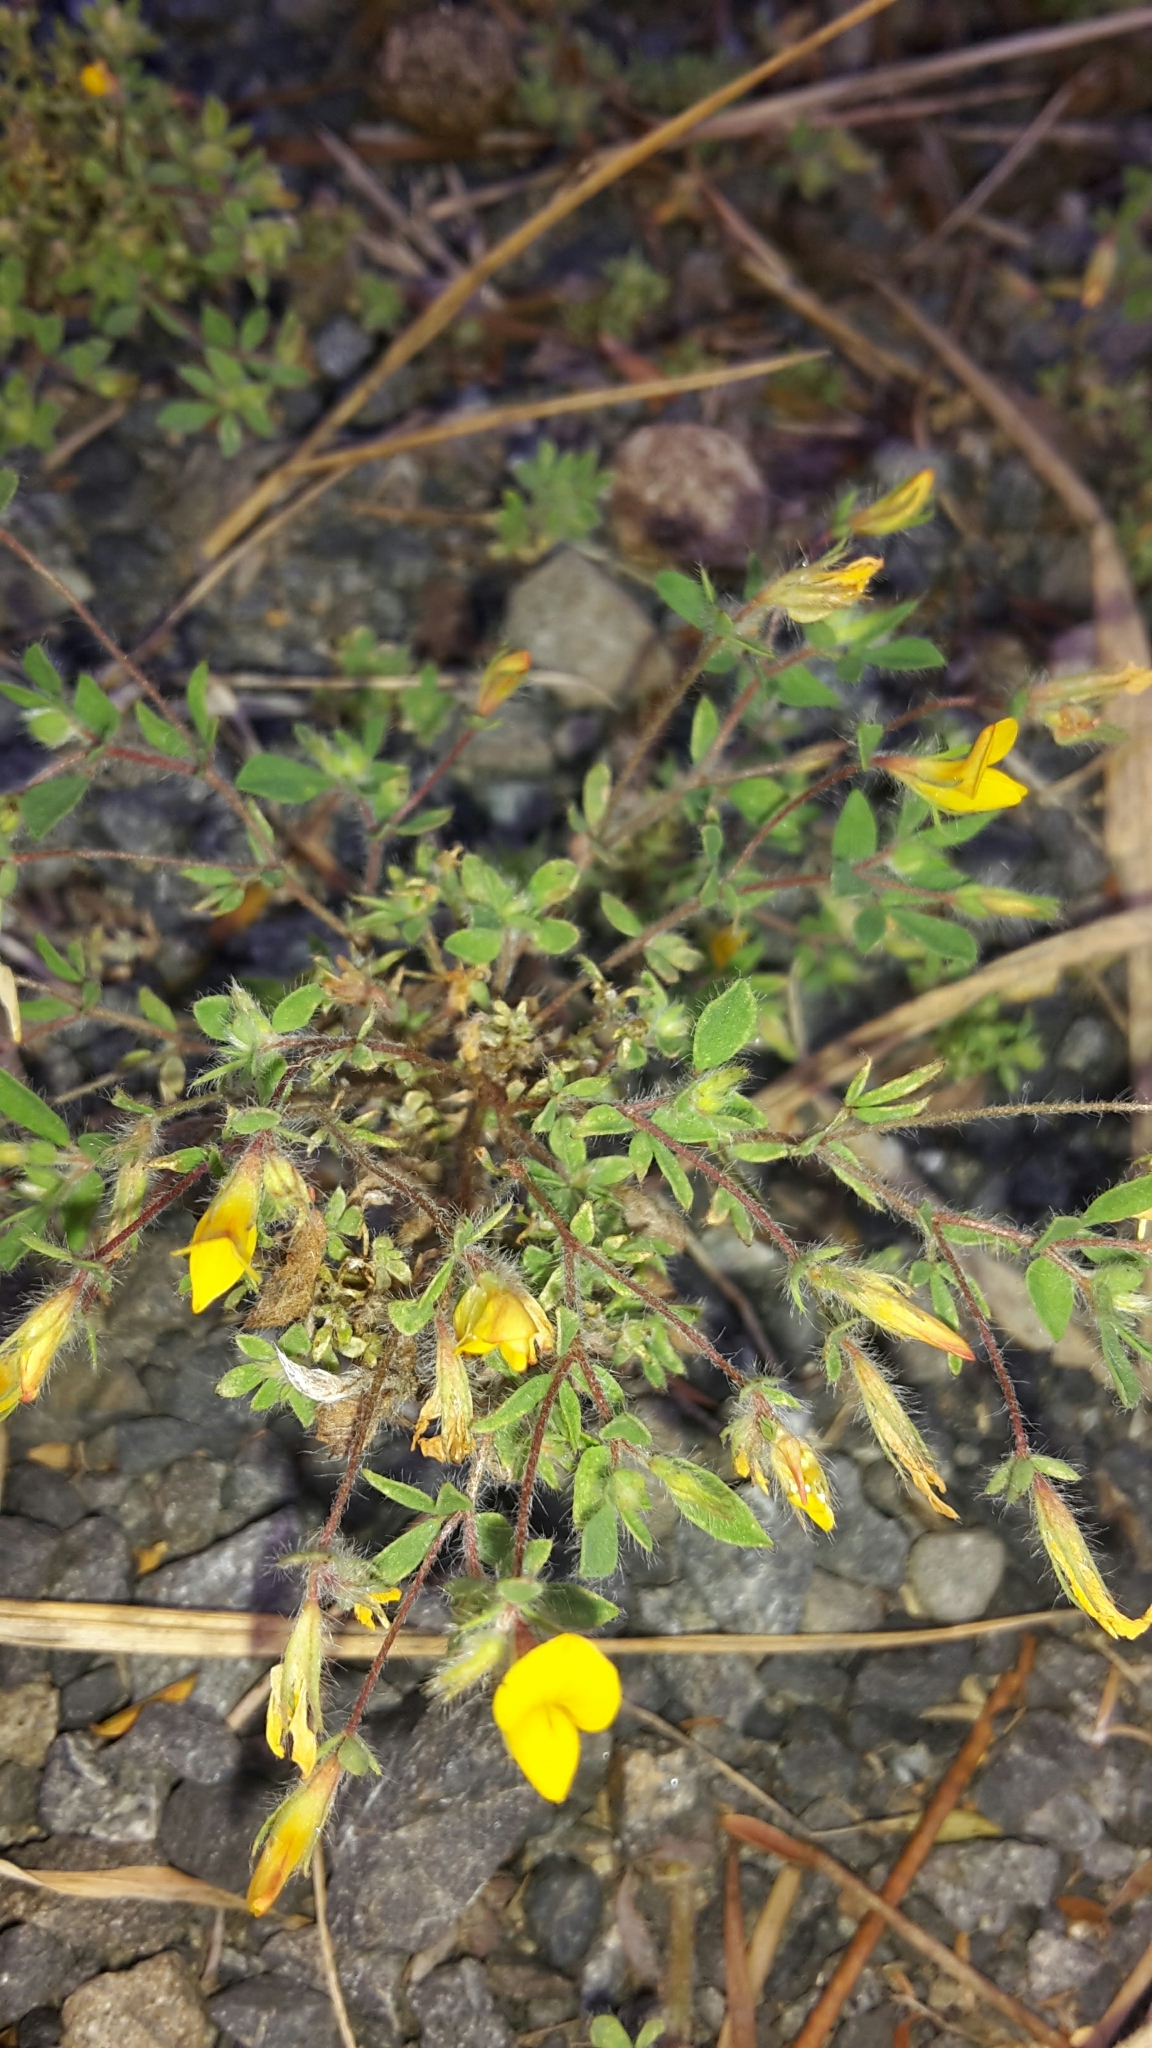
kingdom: Plantae
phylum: Tracheophyta
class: Magnoliopsida
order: Fabales
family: Fabaceae
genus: Lotus
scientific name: Lotus subbiflorus
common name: Hairy bird's-foot trefoil
